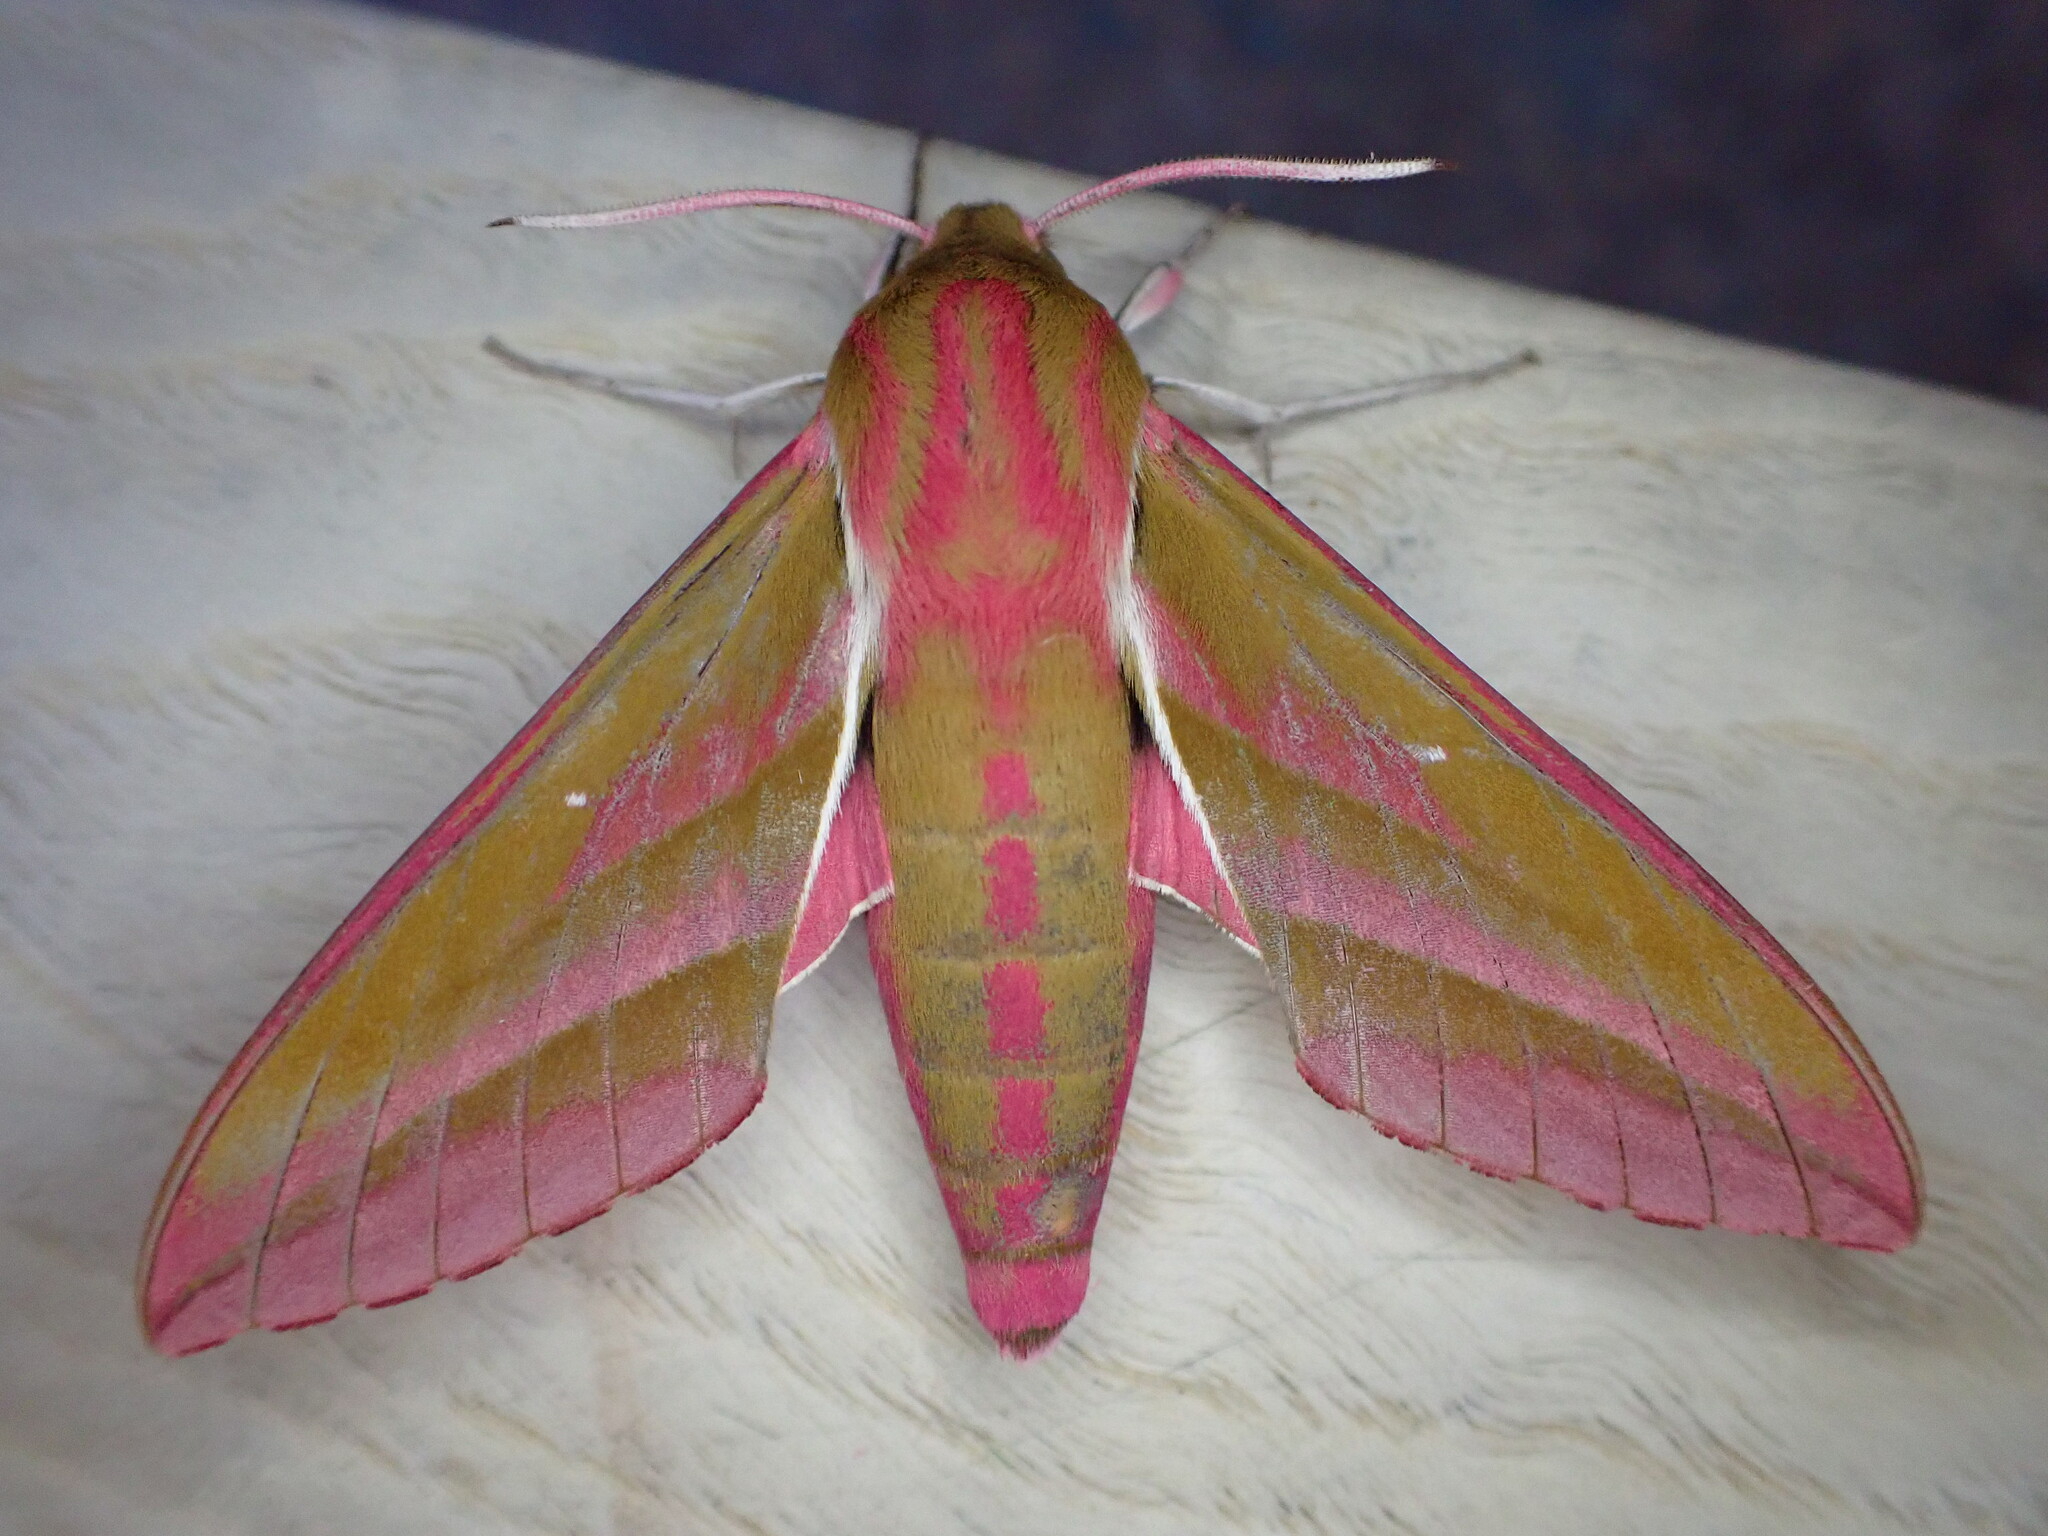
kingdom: Animalia
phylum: Arthropoda
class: Insecta
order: Lepidoptera
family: Sphingidae
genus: Deilephila
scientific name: Deilephila elpenor
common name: Elephant hawk-moth
